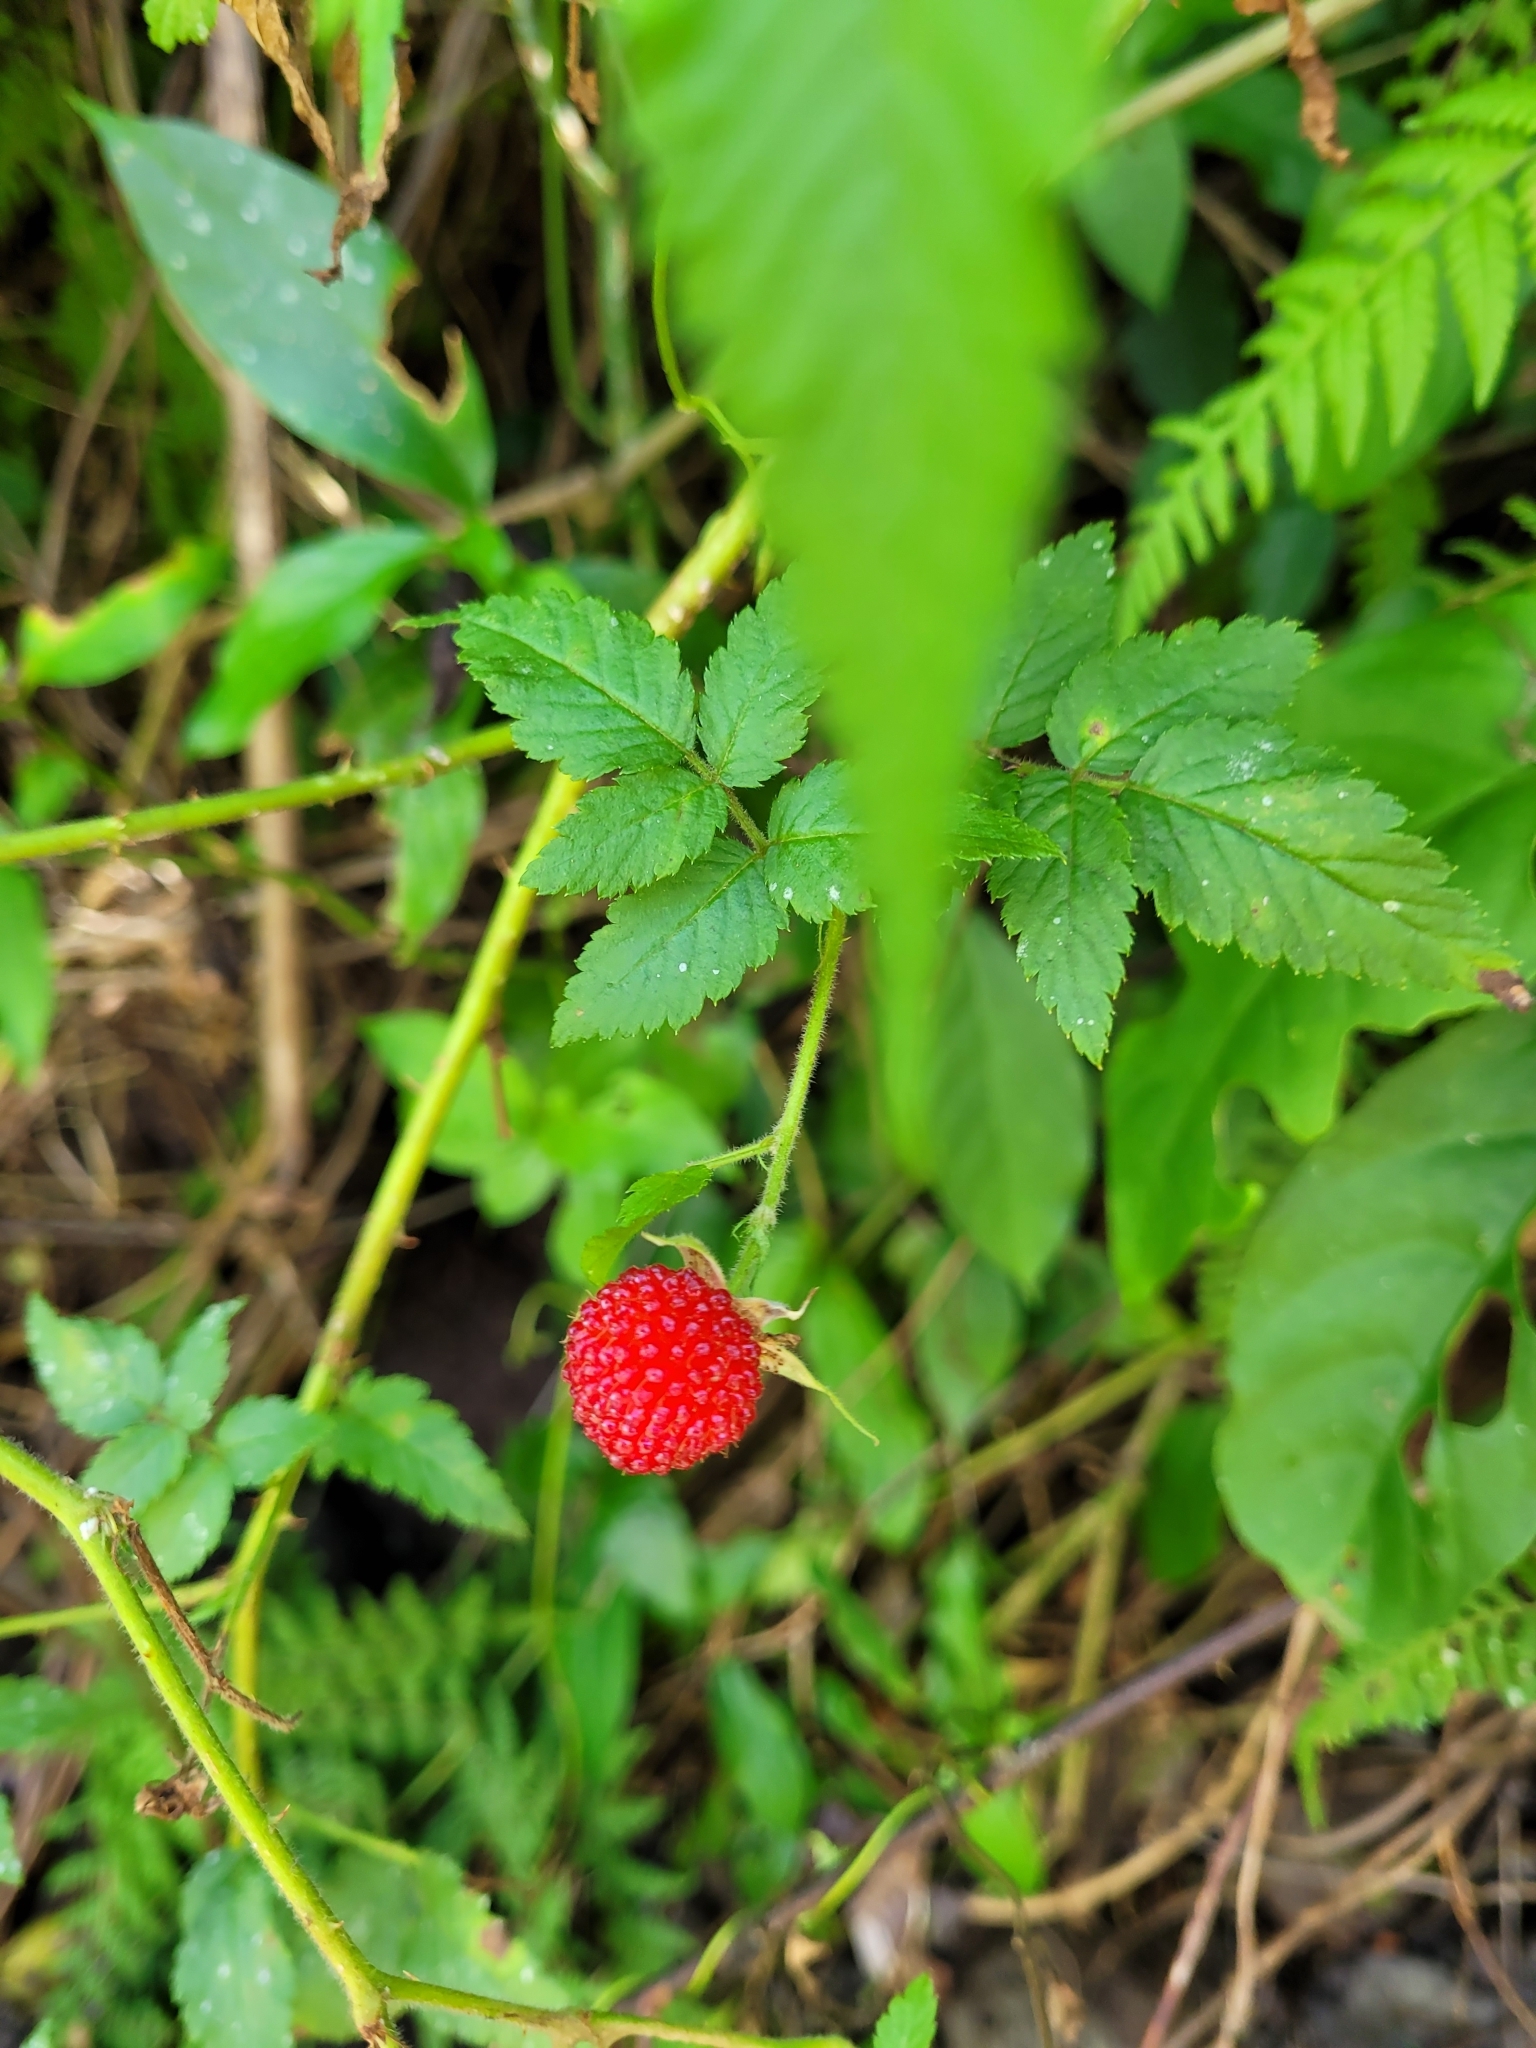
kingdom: Plantae
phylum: Tracheophyta
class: Magnoliopsida
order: Rosales
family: Rosaceae
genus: Rubus
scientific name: Rubus rosifolius
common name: Roseleaf raspberry
